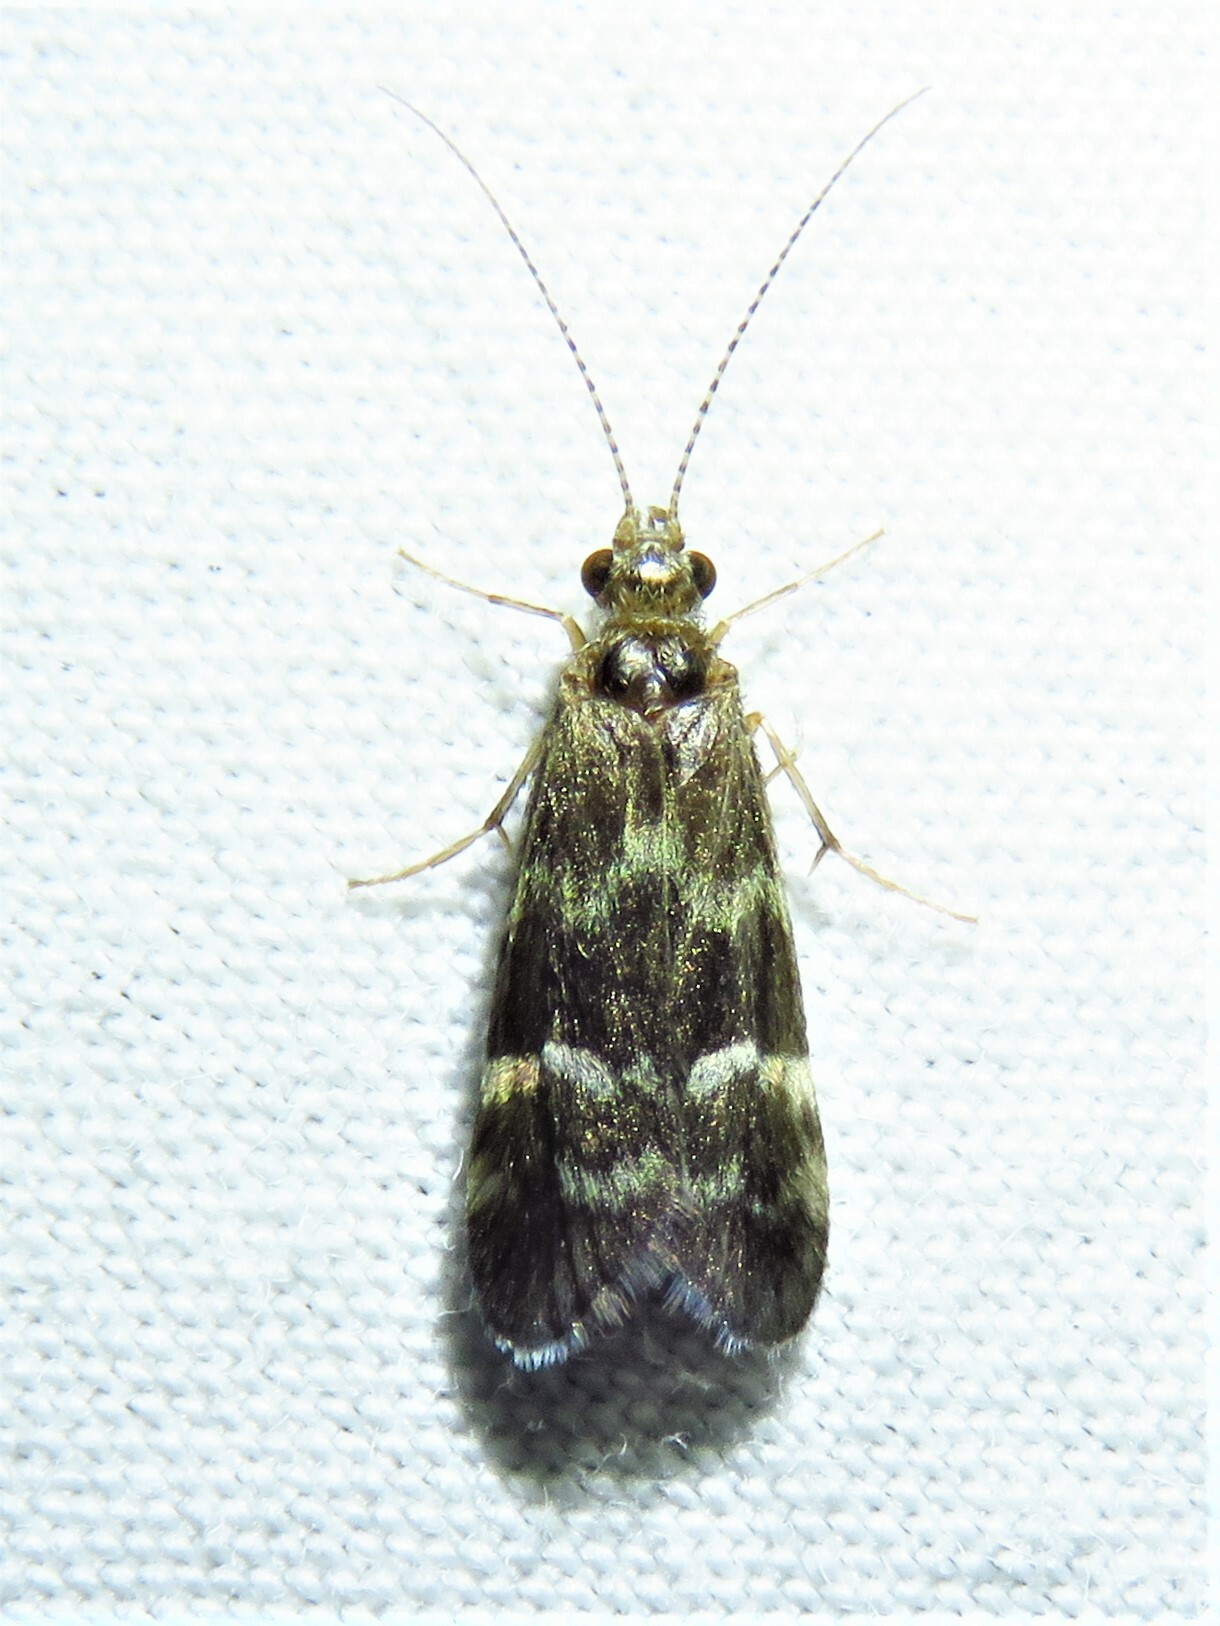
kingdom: Animalia
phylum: Arthropoda
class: Insecta
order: Trichoptera
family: Hydropsychidae
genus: Smicridea
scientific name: Smicridea fasciatella
